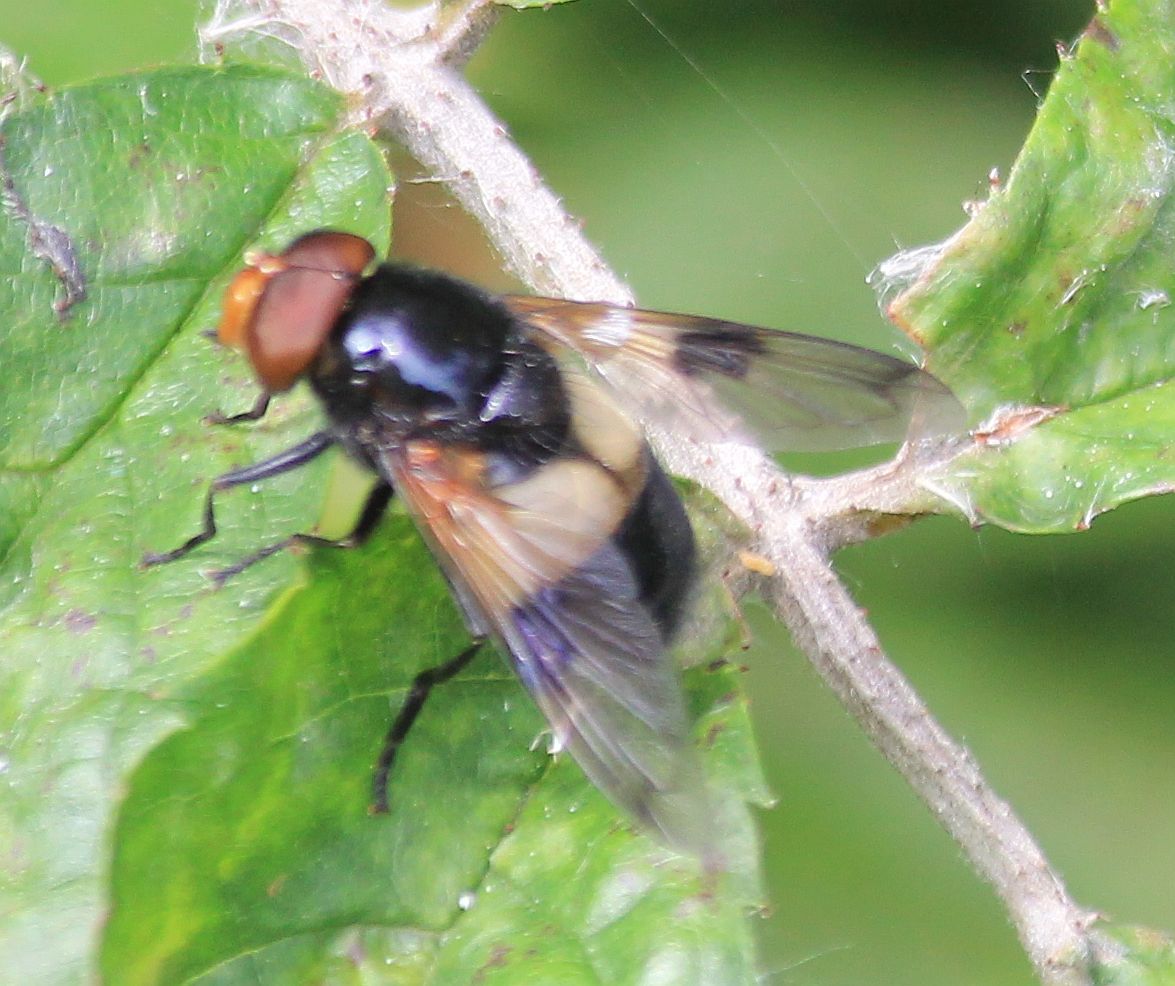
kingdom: Animalia
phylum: Arthropoda
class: Insecta
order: Diptera
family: Syrphidae
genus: Volucella
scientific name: Volucella pellucens
